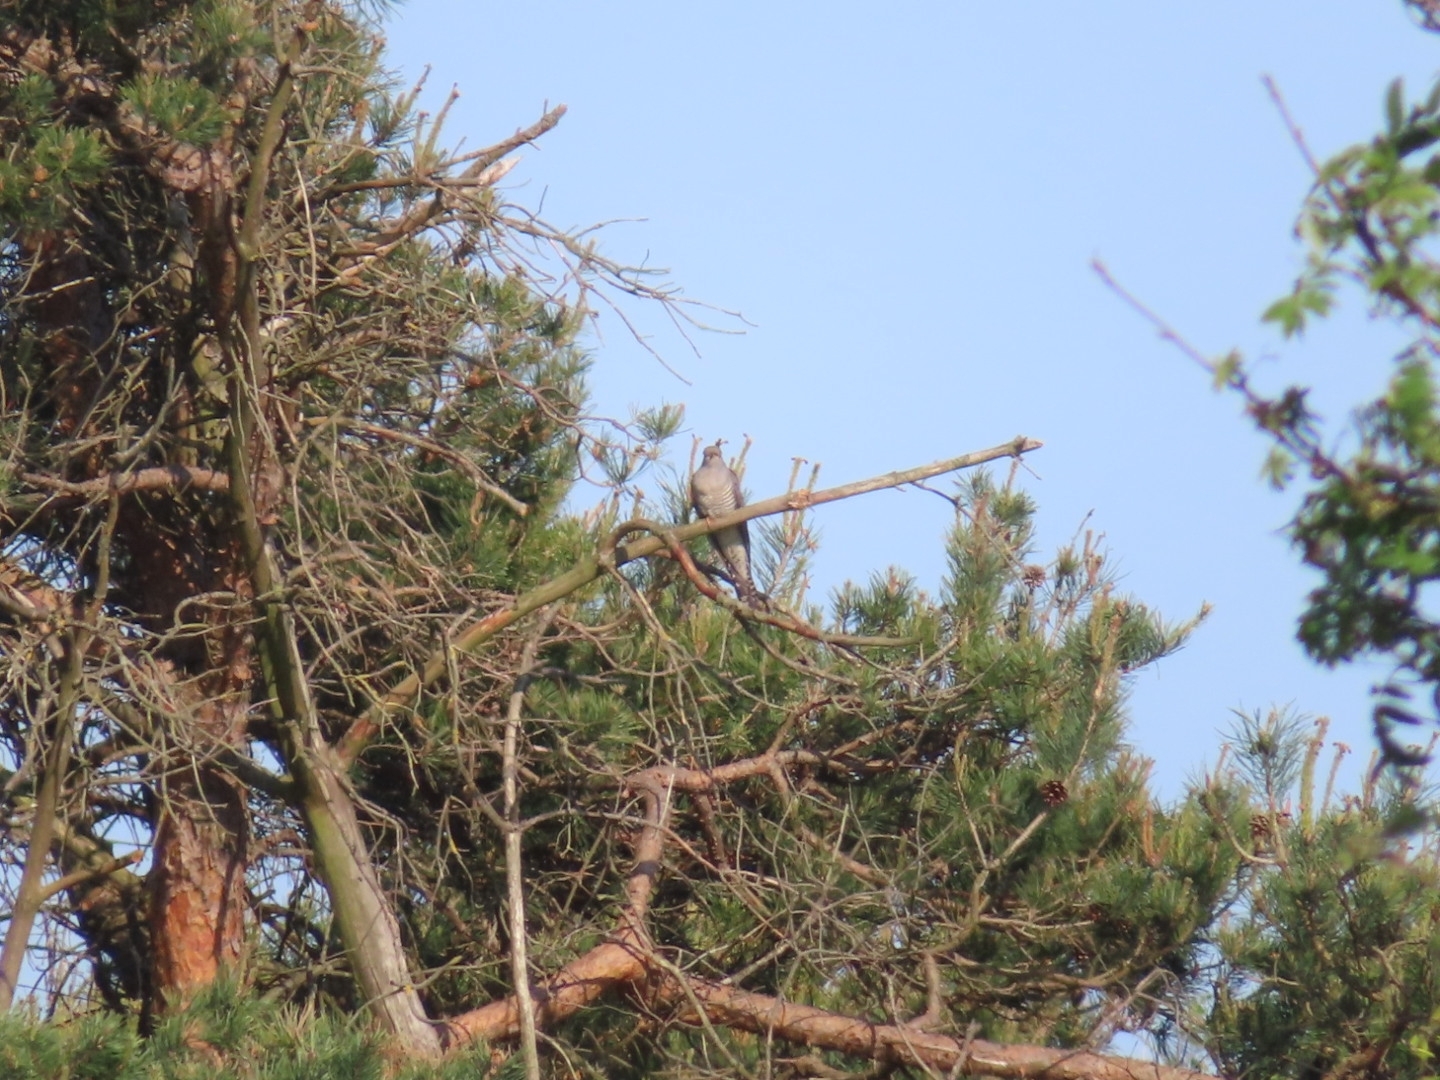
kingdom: Animalia
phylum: Chordata
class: Aves
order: Cuculiformes
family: Cuculidae
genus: Cuculus
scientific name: Cuculus canorus
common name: Common cuckoo
